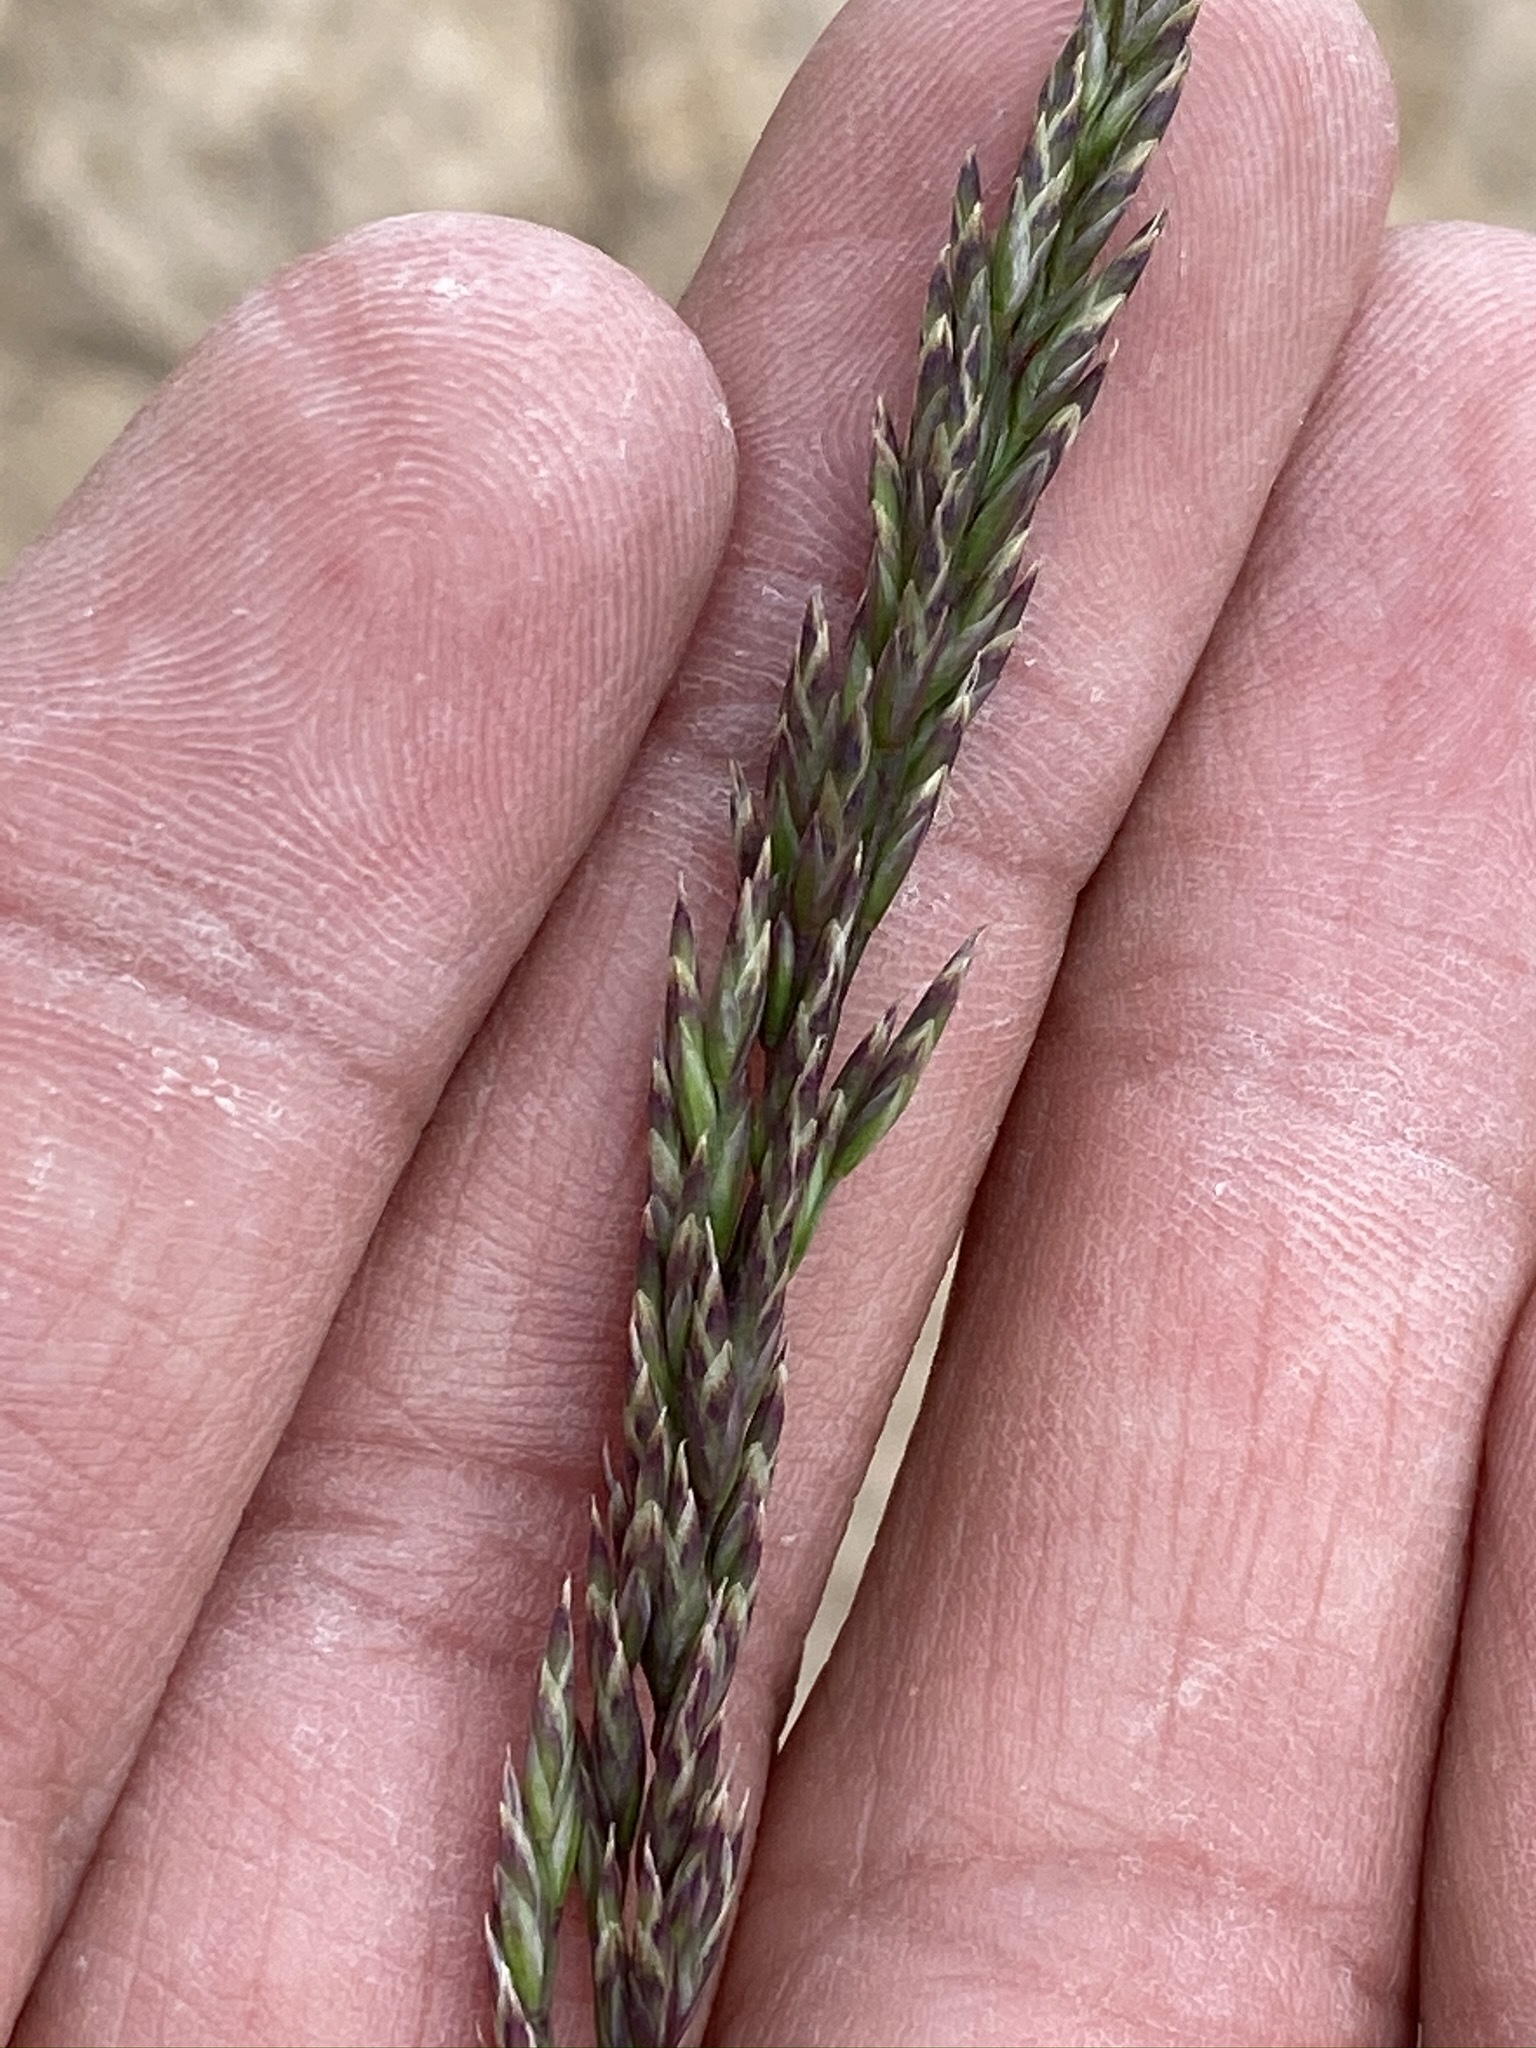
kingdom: Plantae
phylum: Tracheophyta
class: Liliopsida
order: Poales
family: Poaceae
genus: Poa
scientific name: Poa secunda
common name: Sandberg bluegrass
